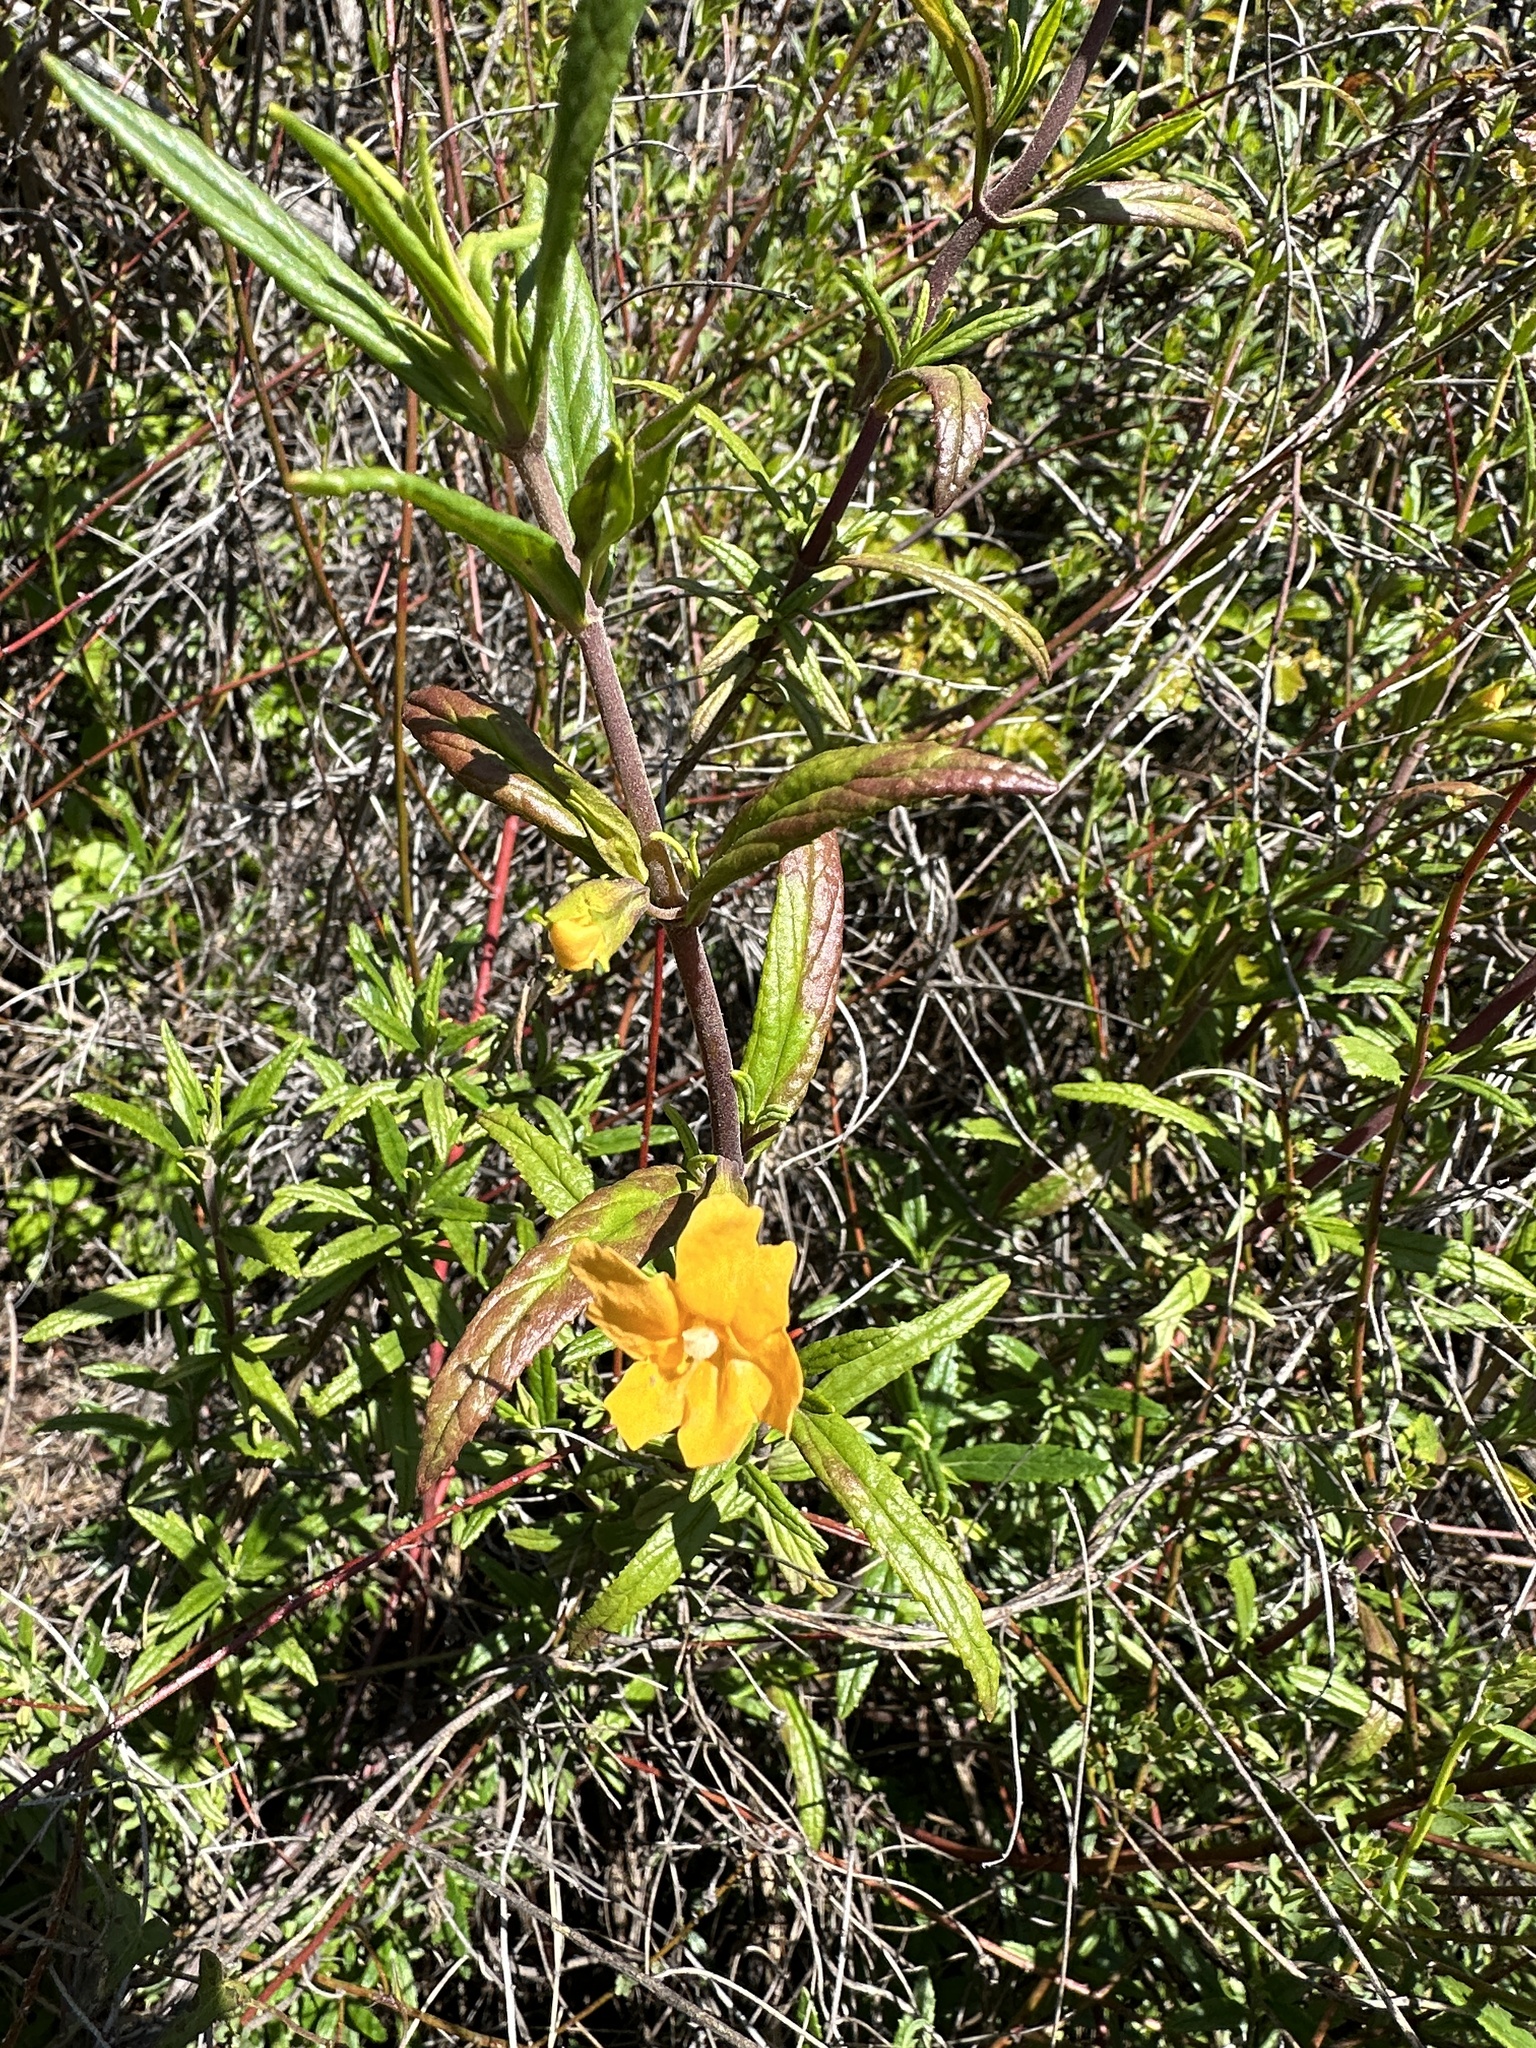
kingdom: Plantae
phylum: Tracheophyta
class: Magnoliopsida
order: Lamiales
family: Phrymaceae
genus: Diplacus
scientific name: Diplacus aurantiacus
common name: Bush monkey-flower
